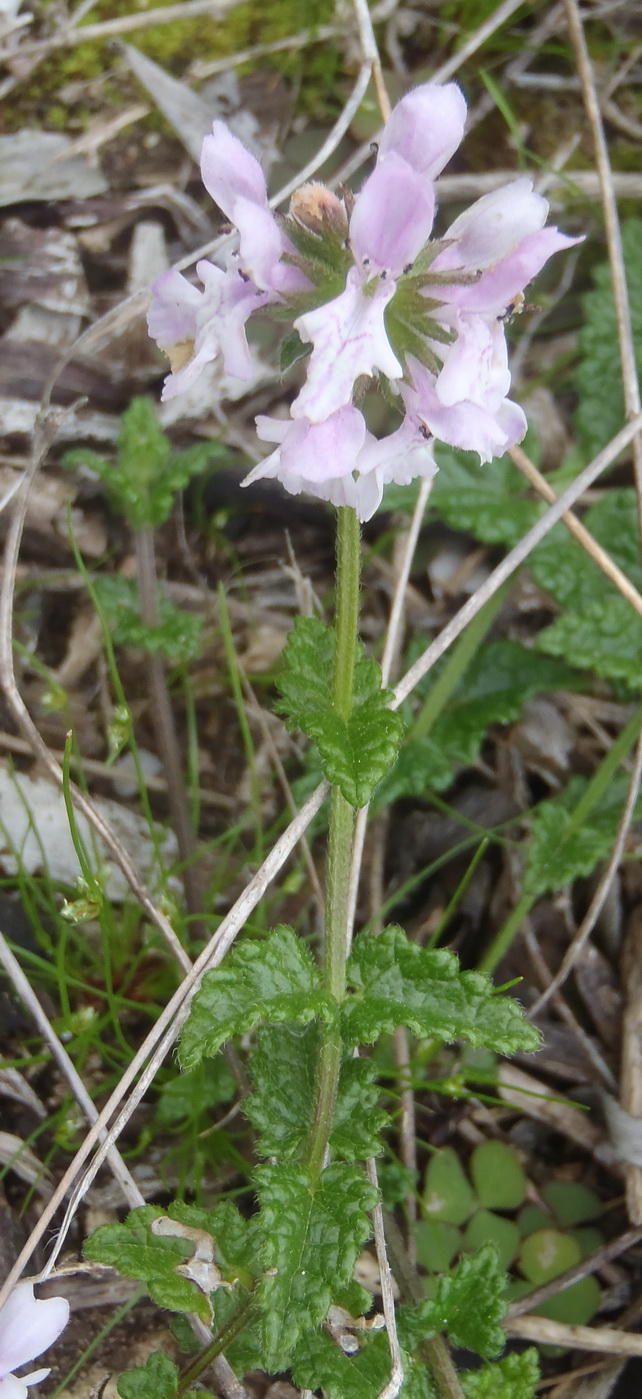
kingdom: Plantae
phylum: Tracheophyta
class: Magnoliopsida
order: Lamiales
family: Lamiaceae
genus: Stachys
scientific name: Stachys aethiopica
